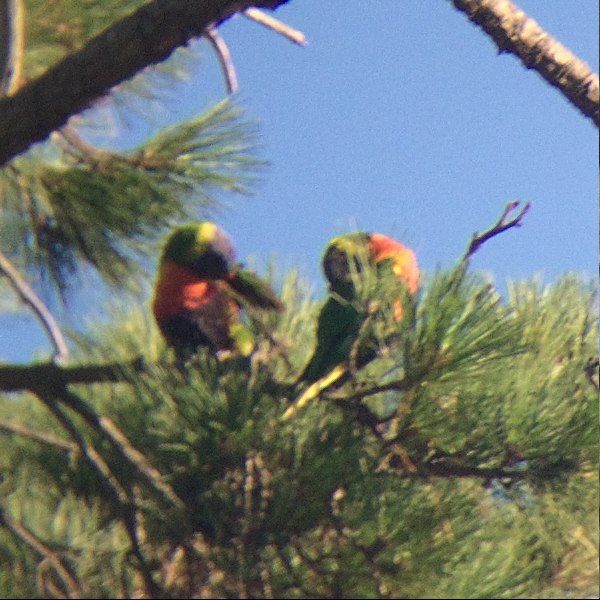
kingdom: Animalia
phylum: Chordata
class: Aves
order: Psittaciformes
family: Psittacidae
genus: Trichoglossus
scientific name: Trichoglossus haematodus
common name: Coconut lorikeet
